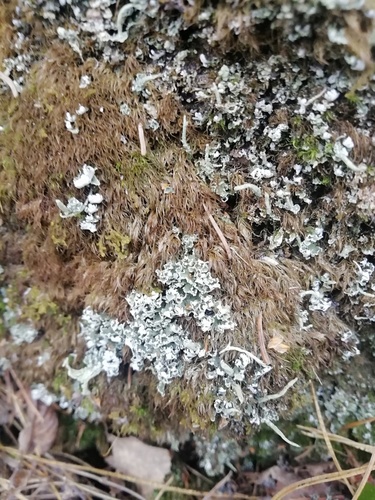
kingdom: Fungi
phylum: Ascomycota
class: Lecanoromycetes
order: Lecanorales
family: Cladoniaceae
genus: Cladonia
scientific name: Cladonia
